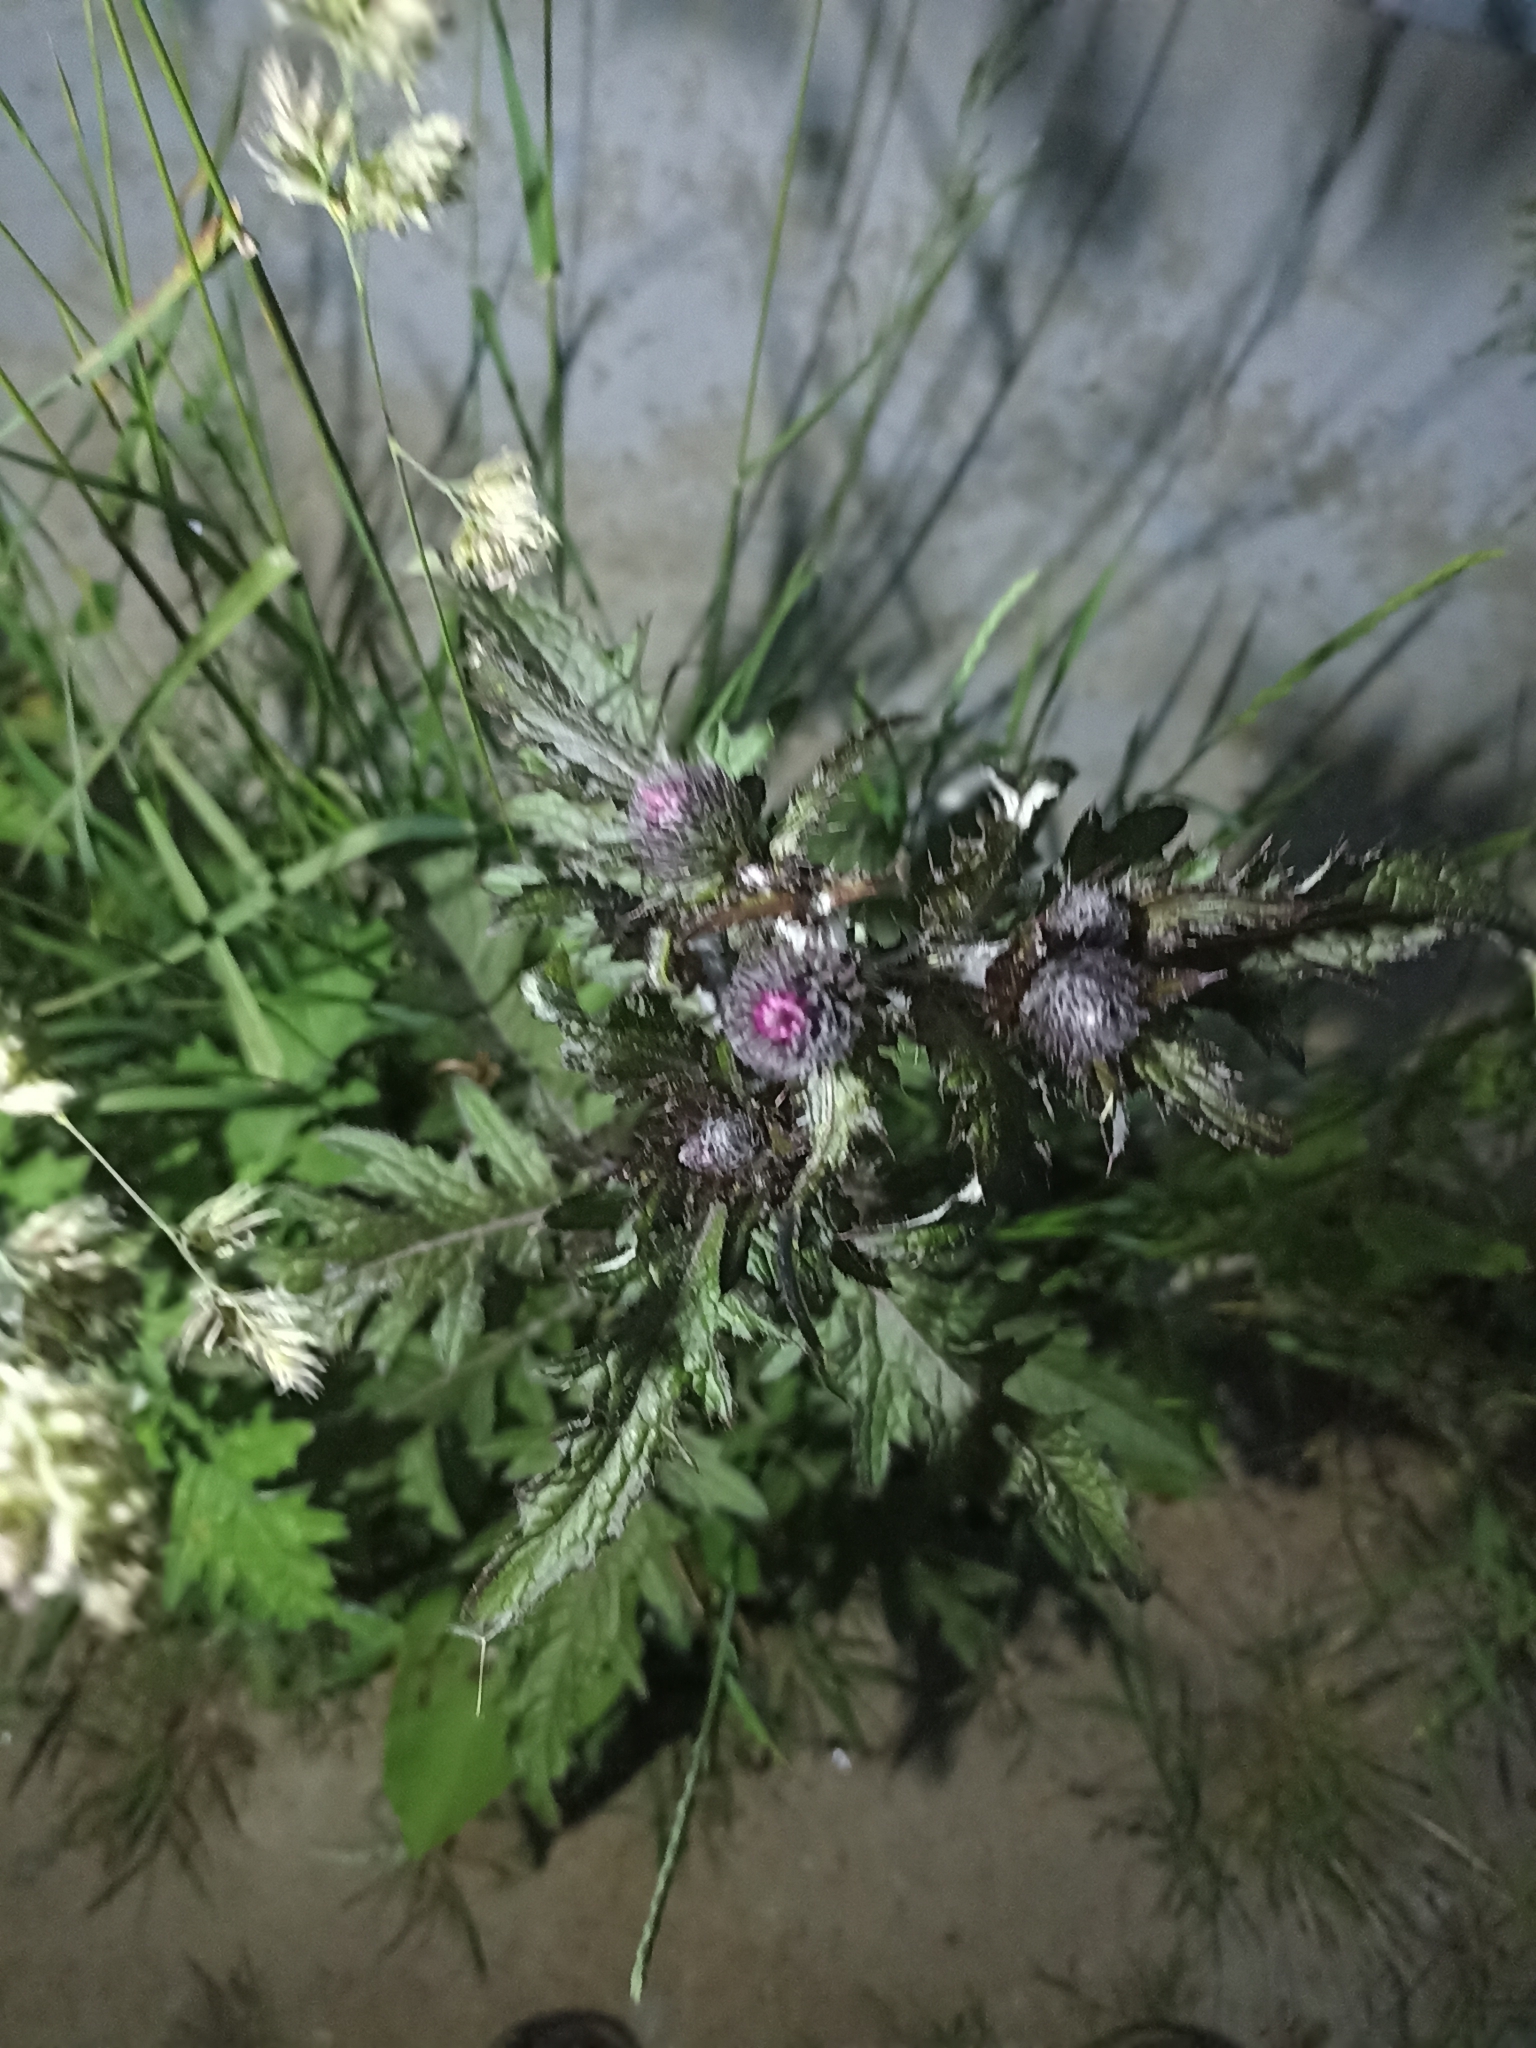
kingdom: Plantae
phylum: Tracheophyta
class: Magnoliopsida
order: Asterales
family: Asteraceae
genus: Carduus
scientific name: Carduus crispus
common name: Welted thistle
